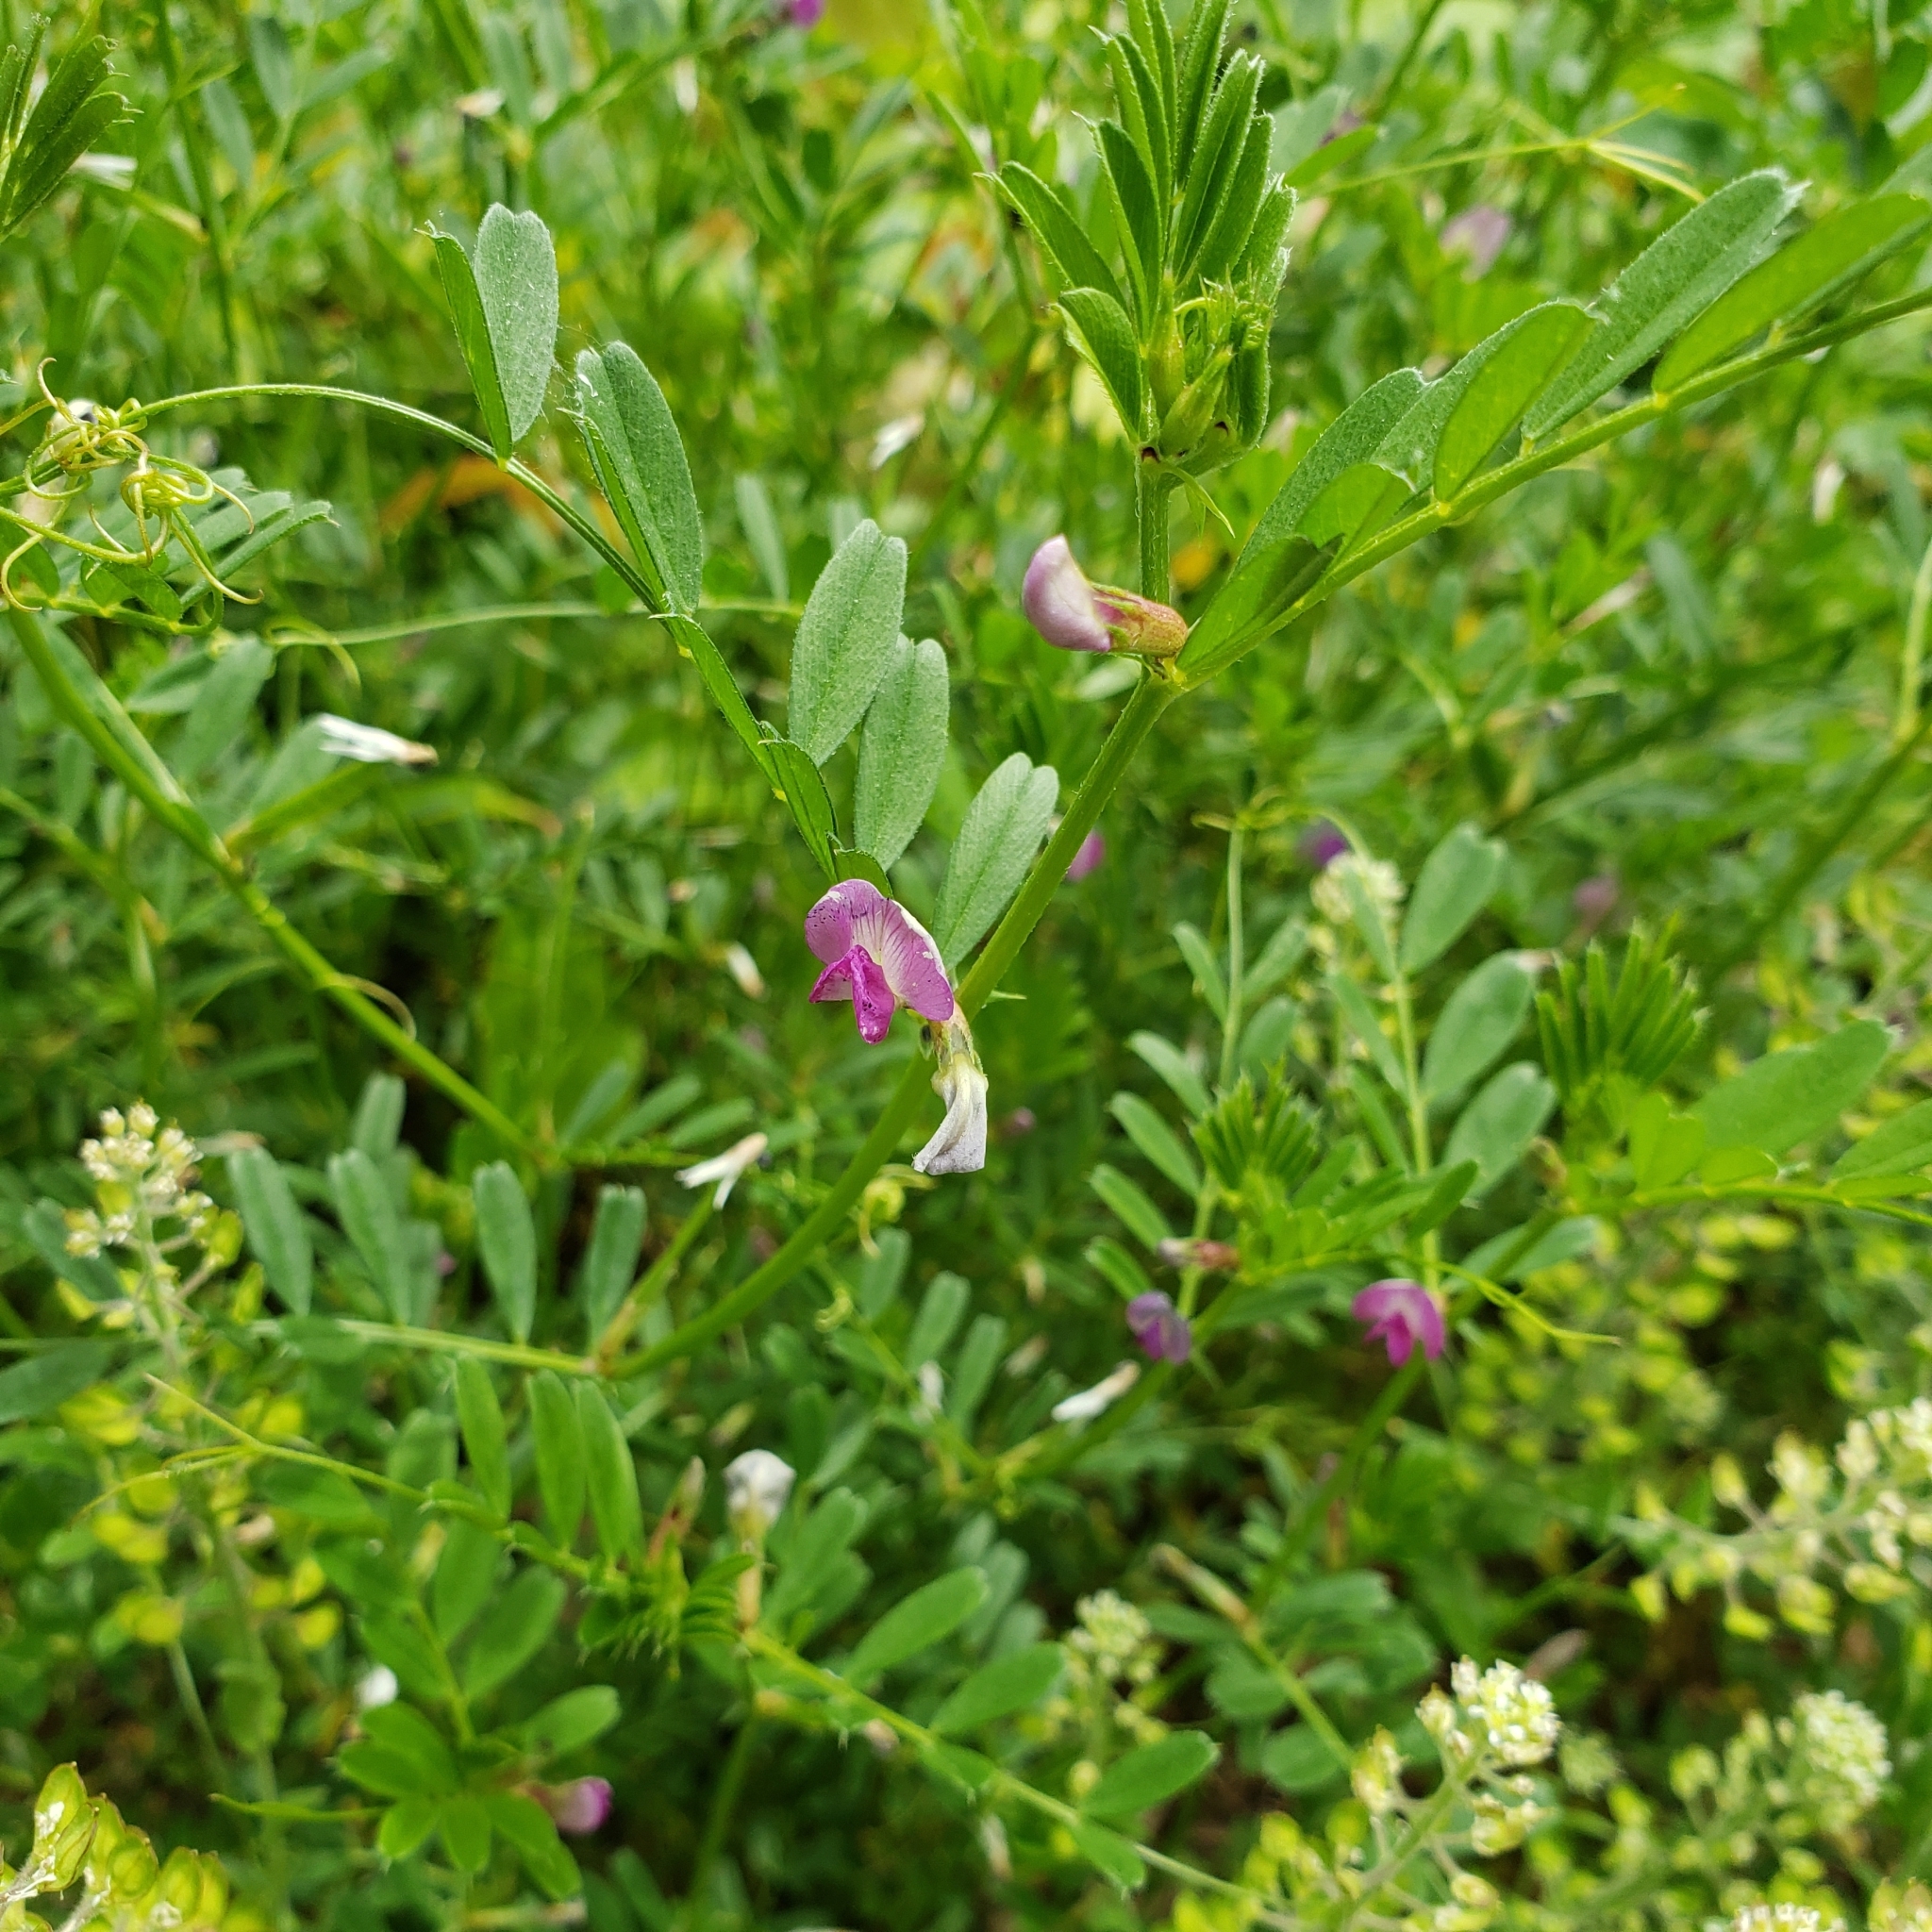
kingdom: Plantae
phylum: Tracheophyta
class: Magnoliopsida
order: Fabales
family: Fabaceae
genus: Vicia
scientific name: Vicia sativa
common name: Garden vetch
